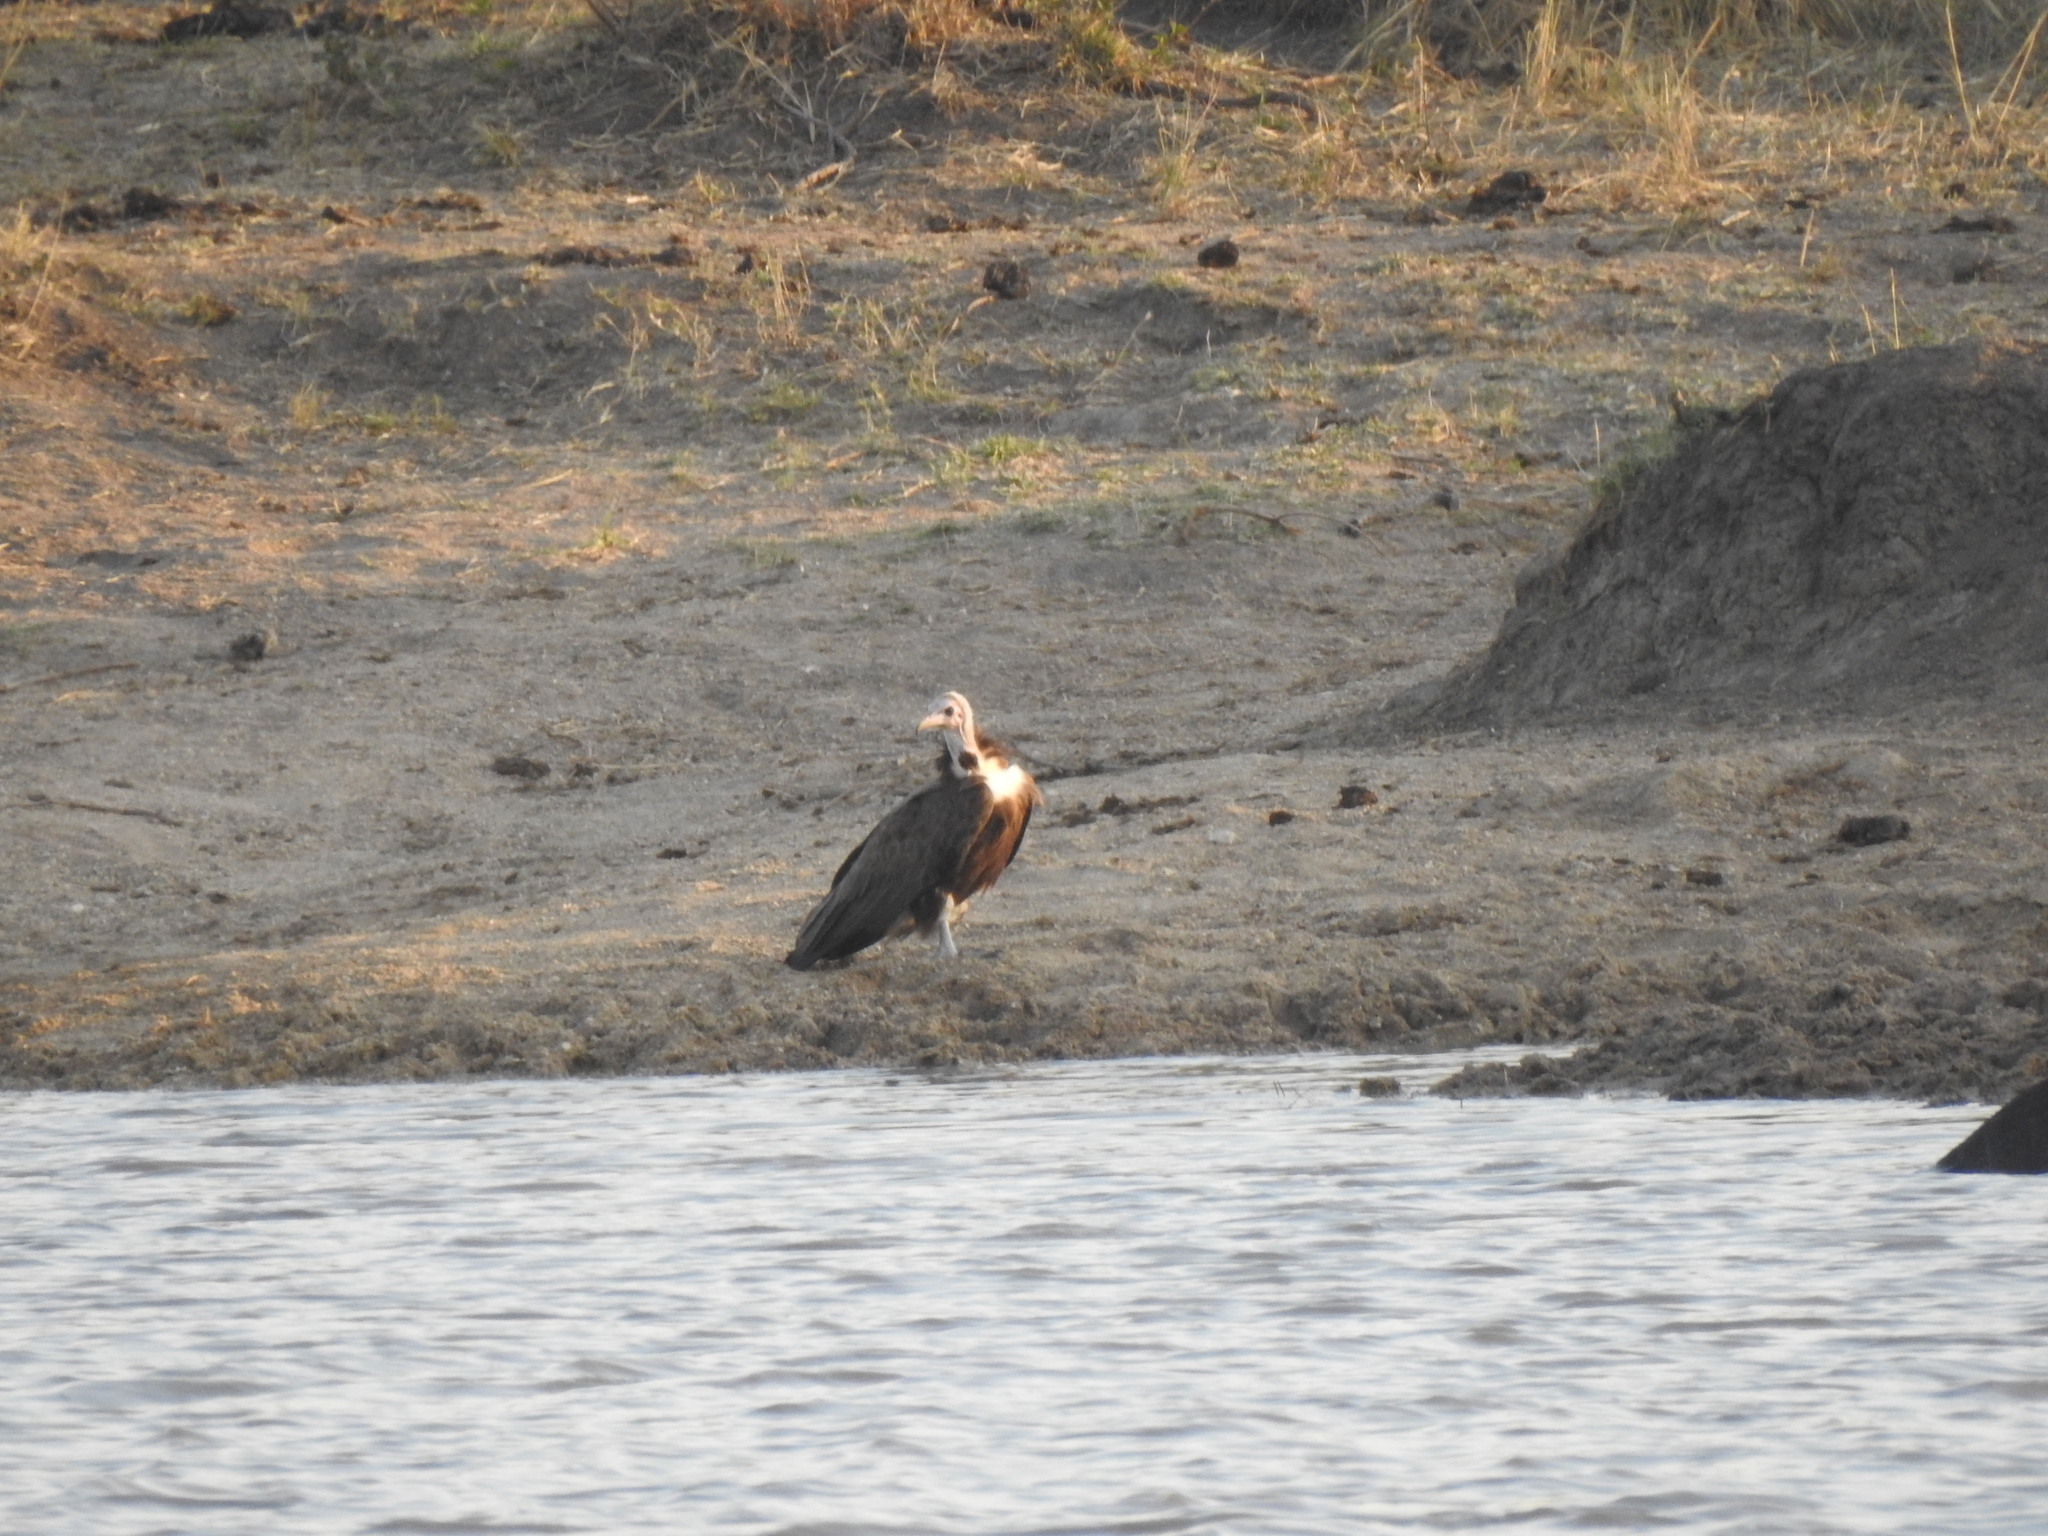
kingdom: Animalia
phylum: Chordata
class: Aves
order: Accipitriformes
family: Accipitridae
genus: Necrosyrtes
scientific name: Necrosyrtes monachus
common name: Hooded vulture
